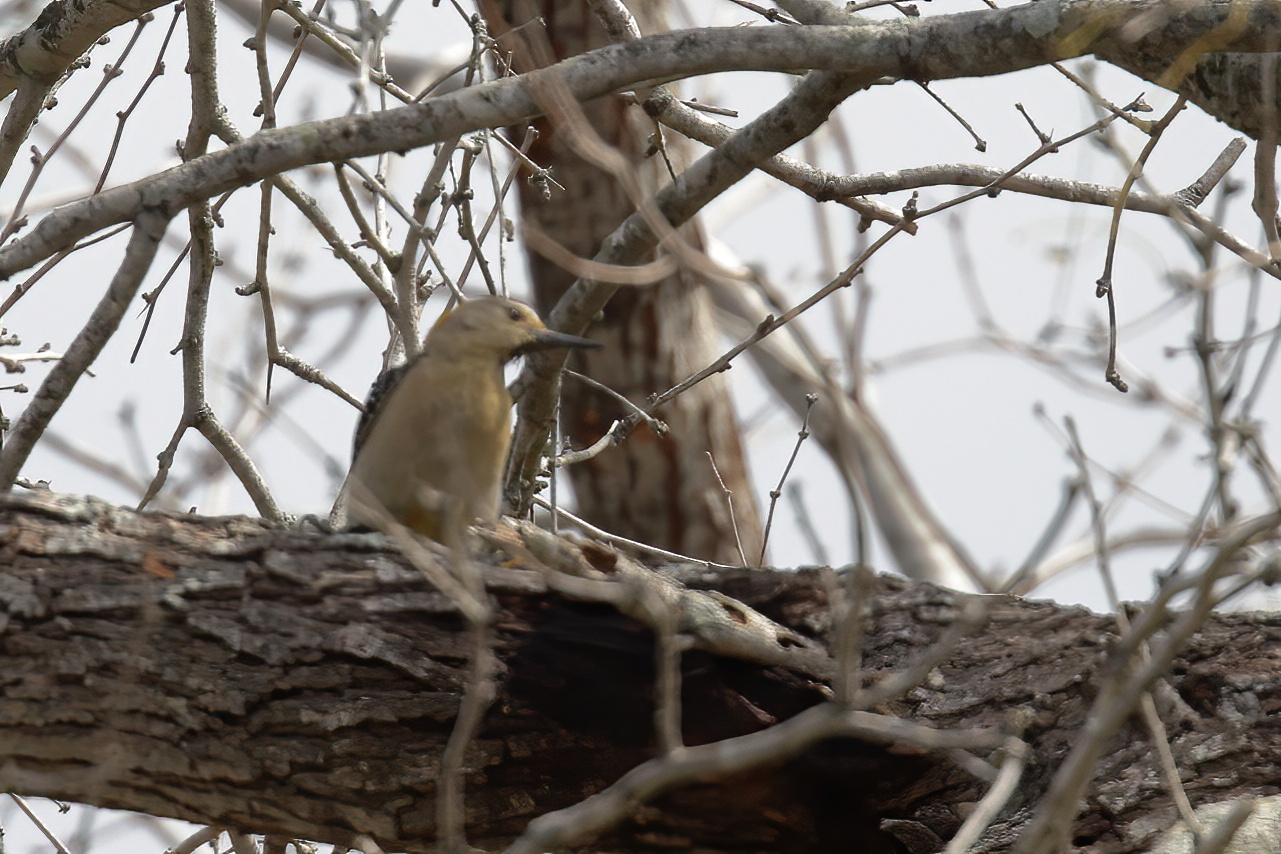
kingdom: Animalia
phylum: Chordata
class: Aves
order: Piciformes
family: Picidae
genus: Melanerpes
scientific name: Melanerpes aurifrons
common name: Golden-fronted woodpecker
